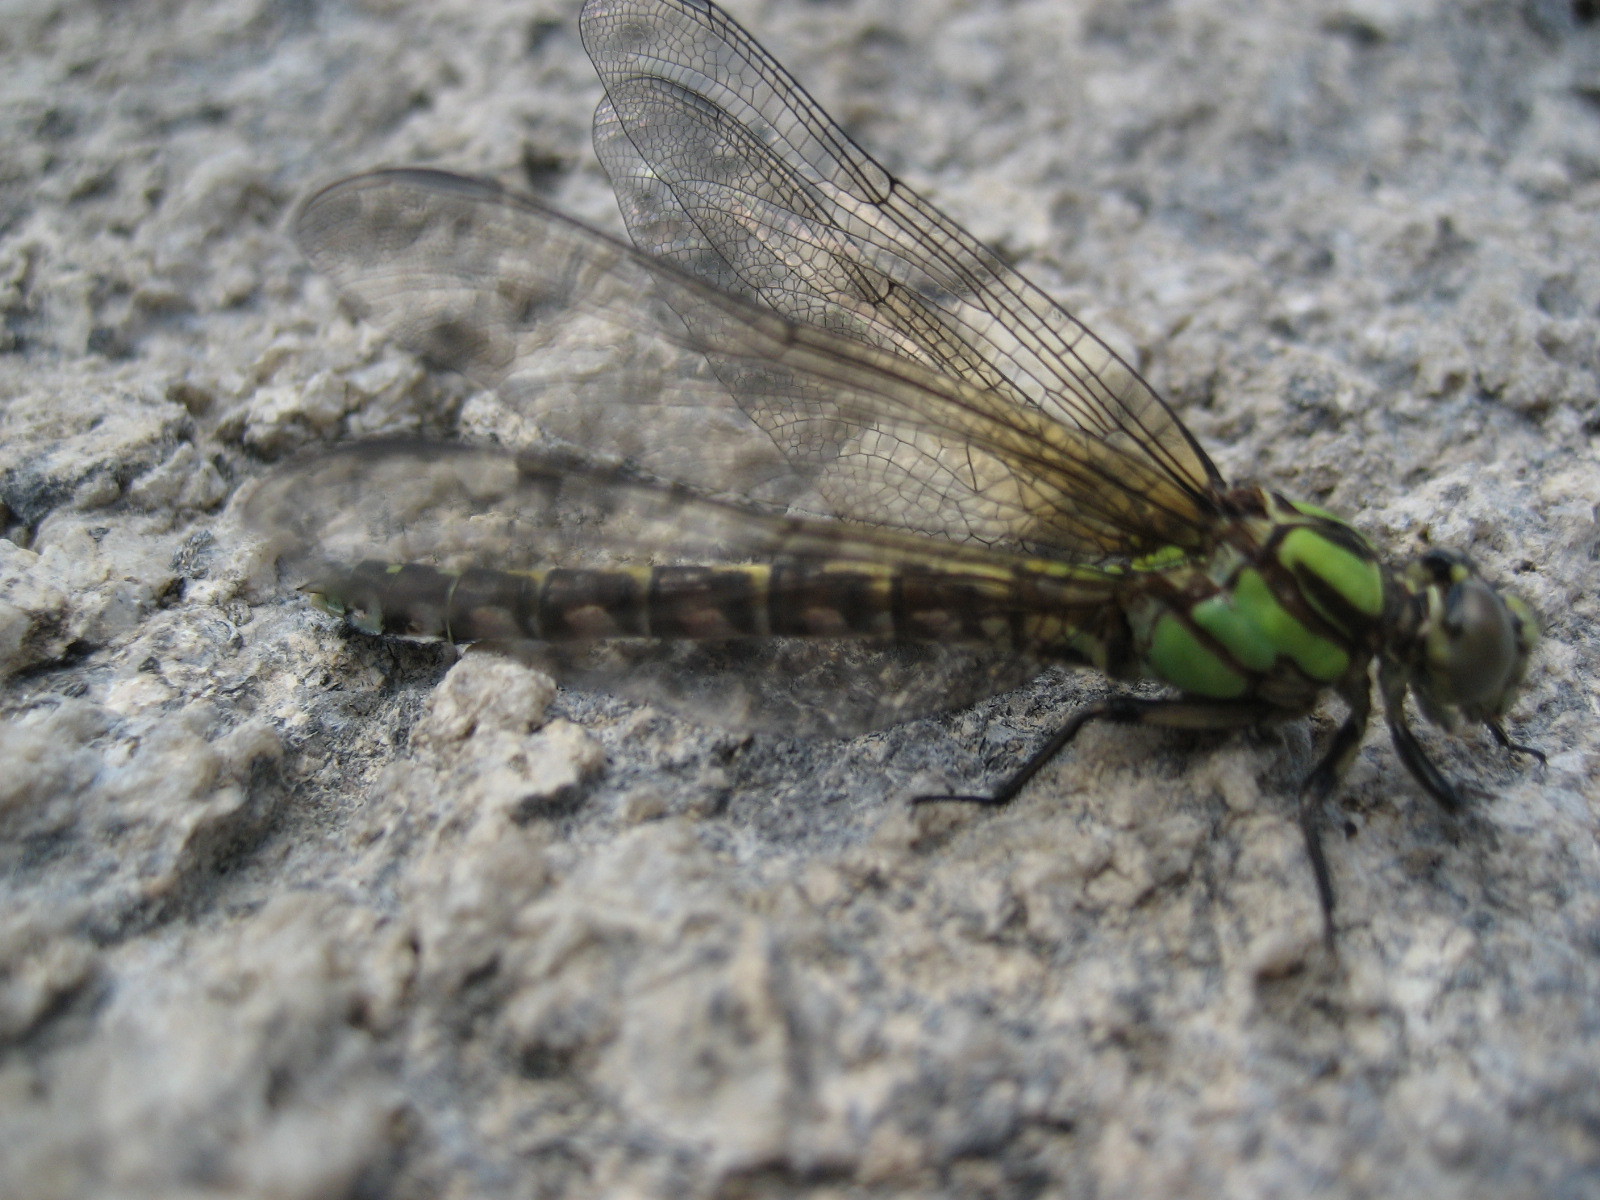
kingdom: Animalia
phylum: Arthropoda
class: Insecta
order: Odonata
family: Gomphidae
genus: Ophiogomphus
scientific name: Ophiogomphus colubrinus
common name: Boreal snaketail
